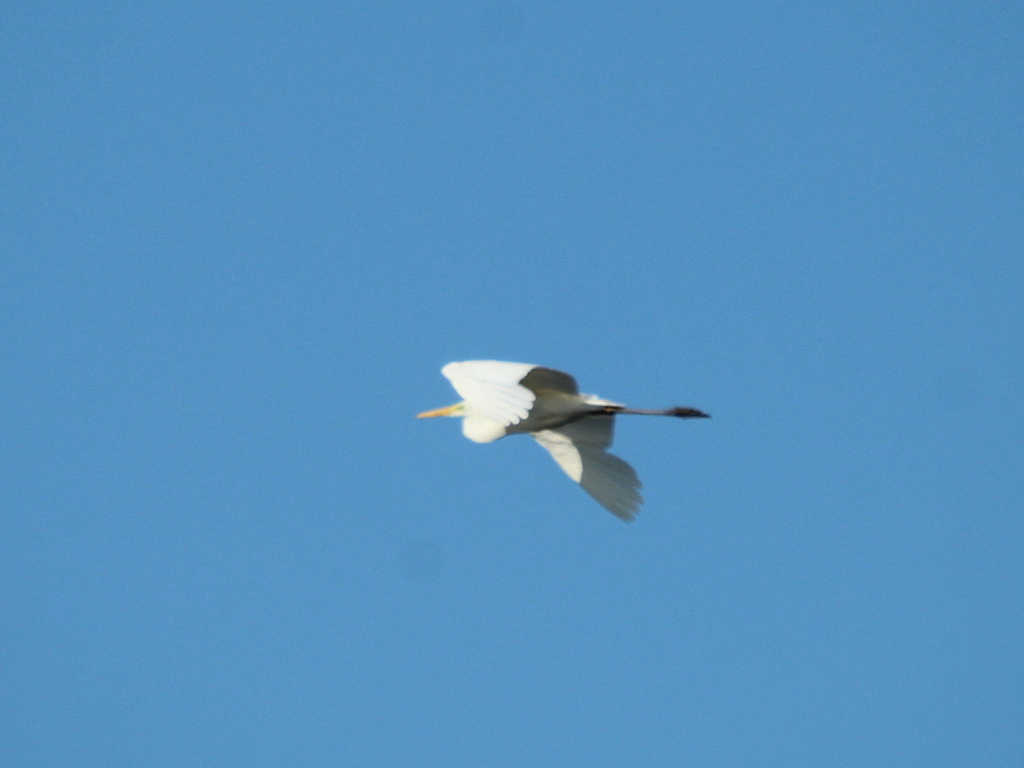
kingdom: Animalia
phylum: Chordata
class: Aves
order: Pelecaniformes
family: Ardeidae
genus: Ardea
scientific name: Ardea alba
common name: Great egret
